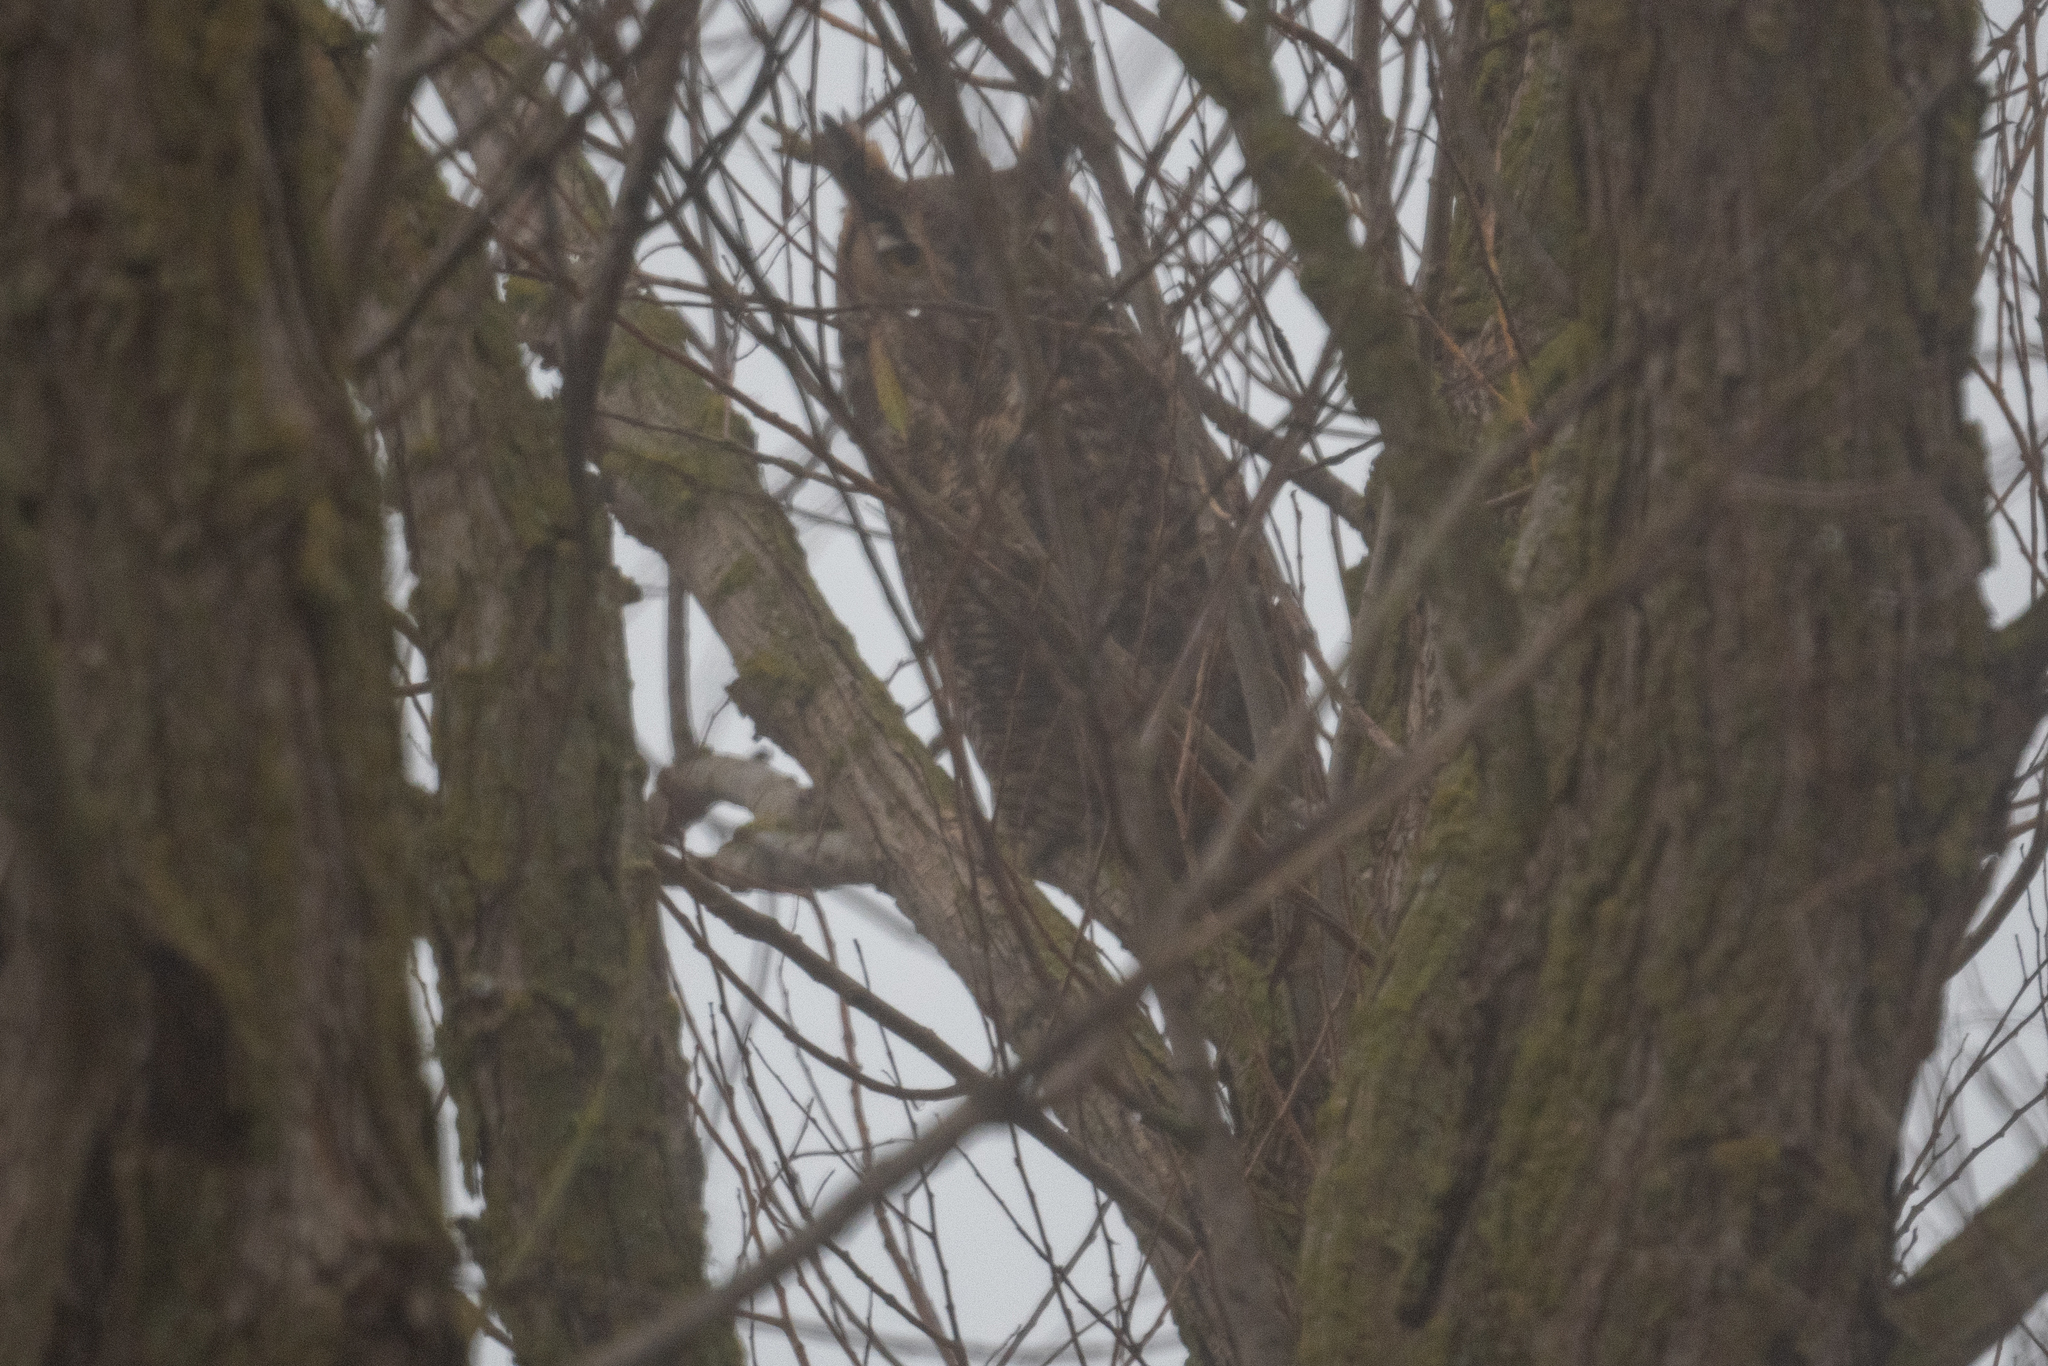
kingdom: Animalia
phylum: Chordata
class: Aves
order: Strigiformes
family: Strigidae
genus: Bubo
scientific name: Bubo virginianus
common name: Great horned owl
